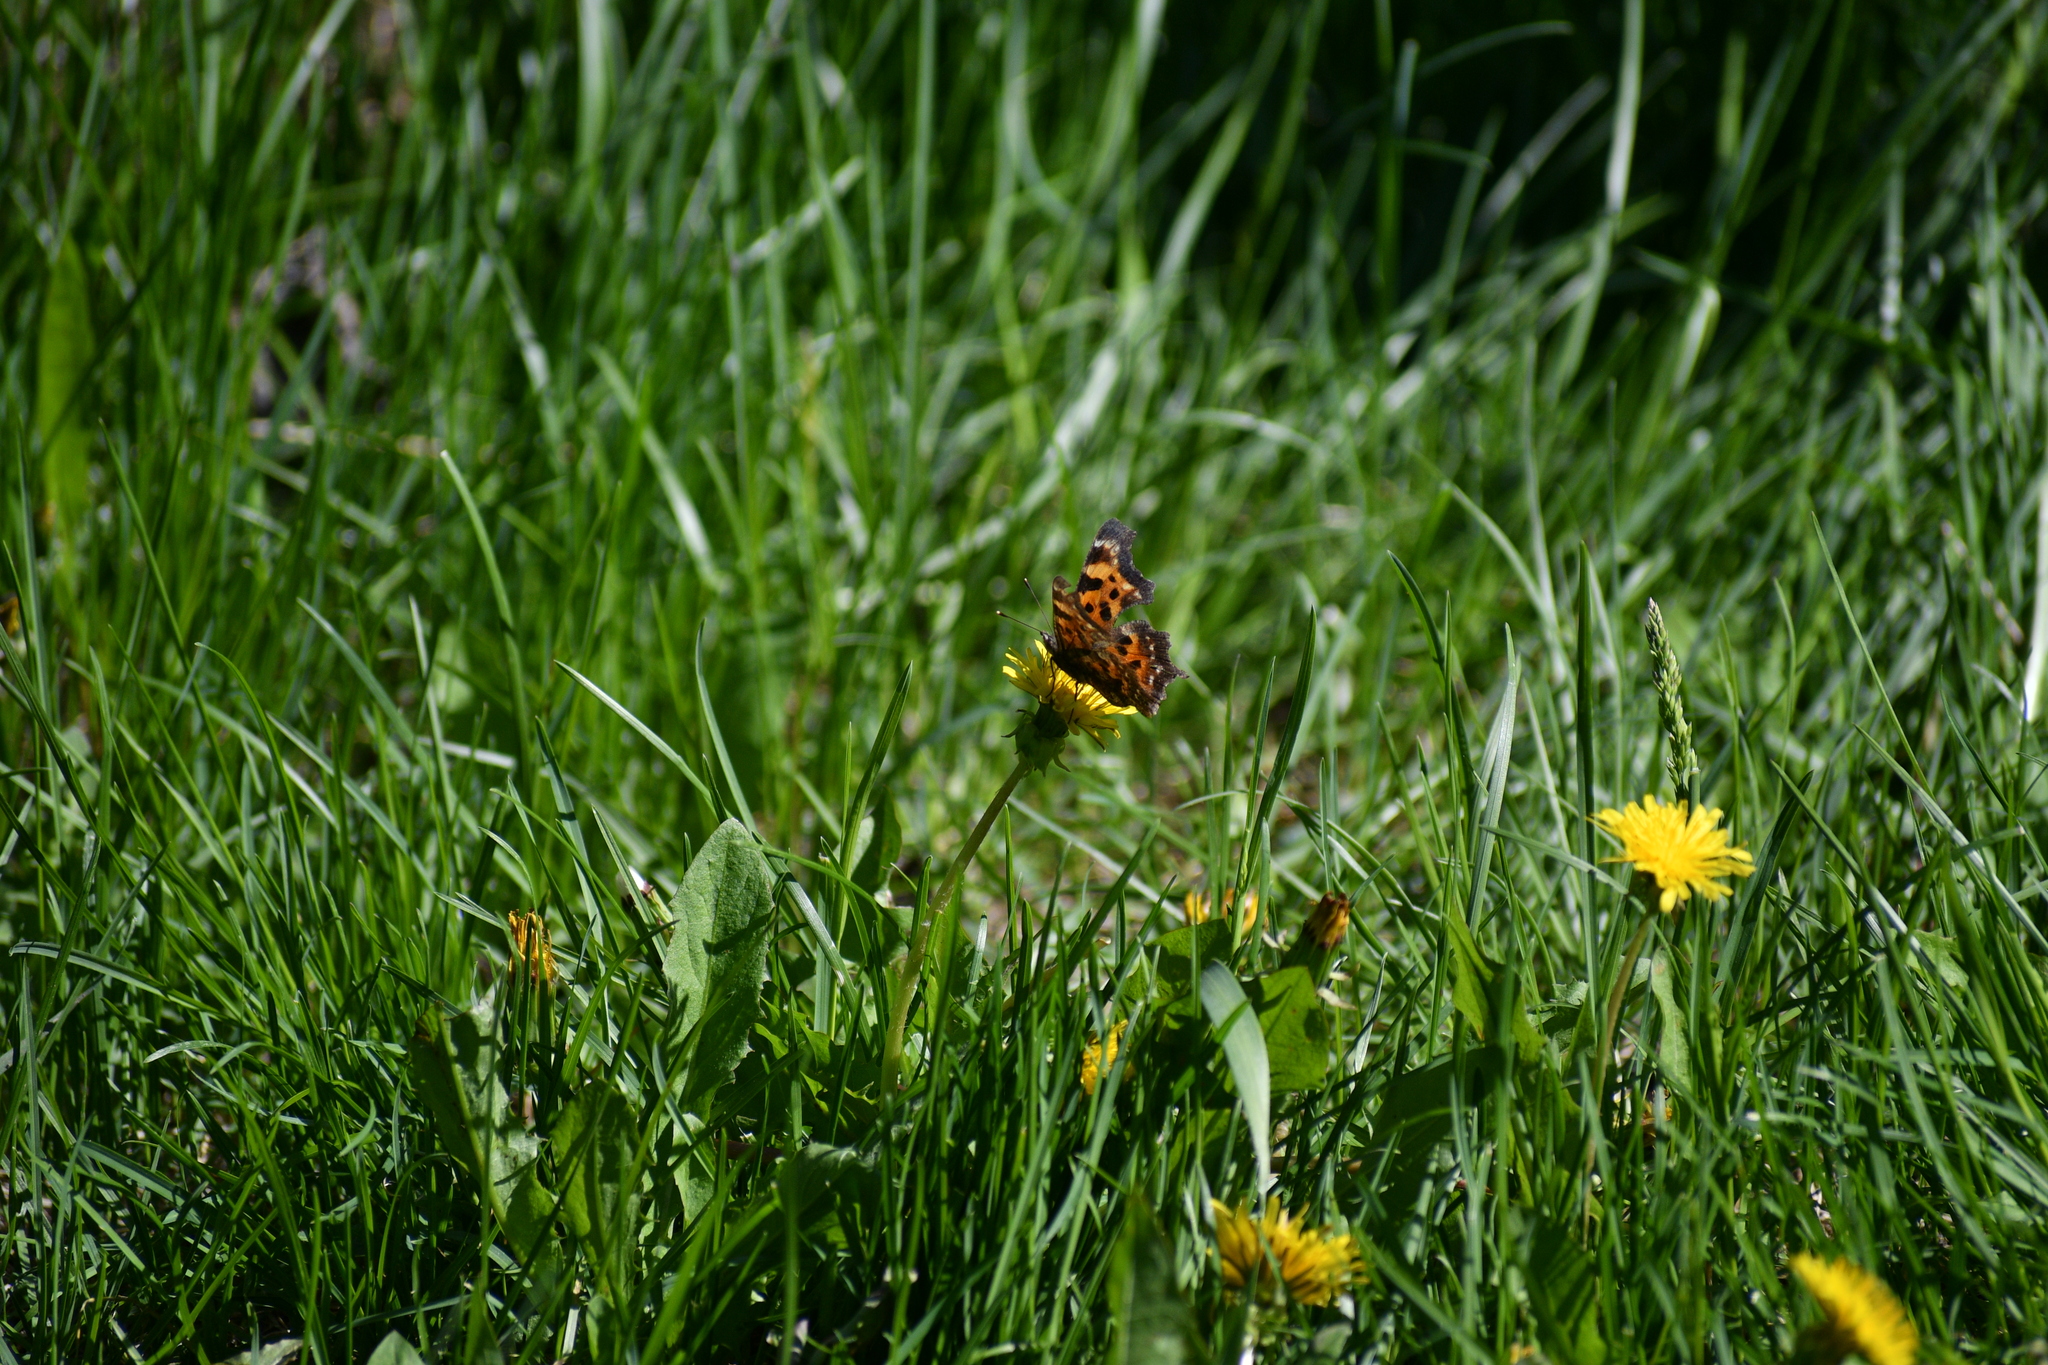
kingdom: Animalia
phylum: Arthropoda
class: Insecta
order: Lepidoptera
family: Nymphalidae
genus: Polygonia
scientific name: Polygonia faunus
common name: Green comma
